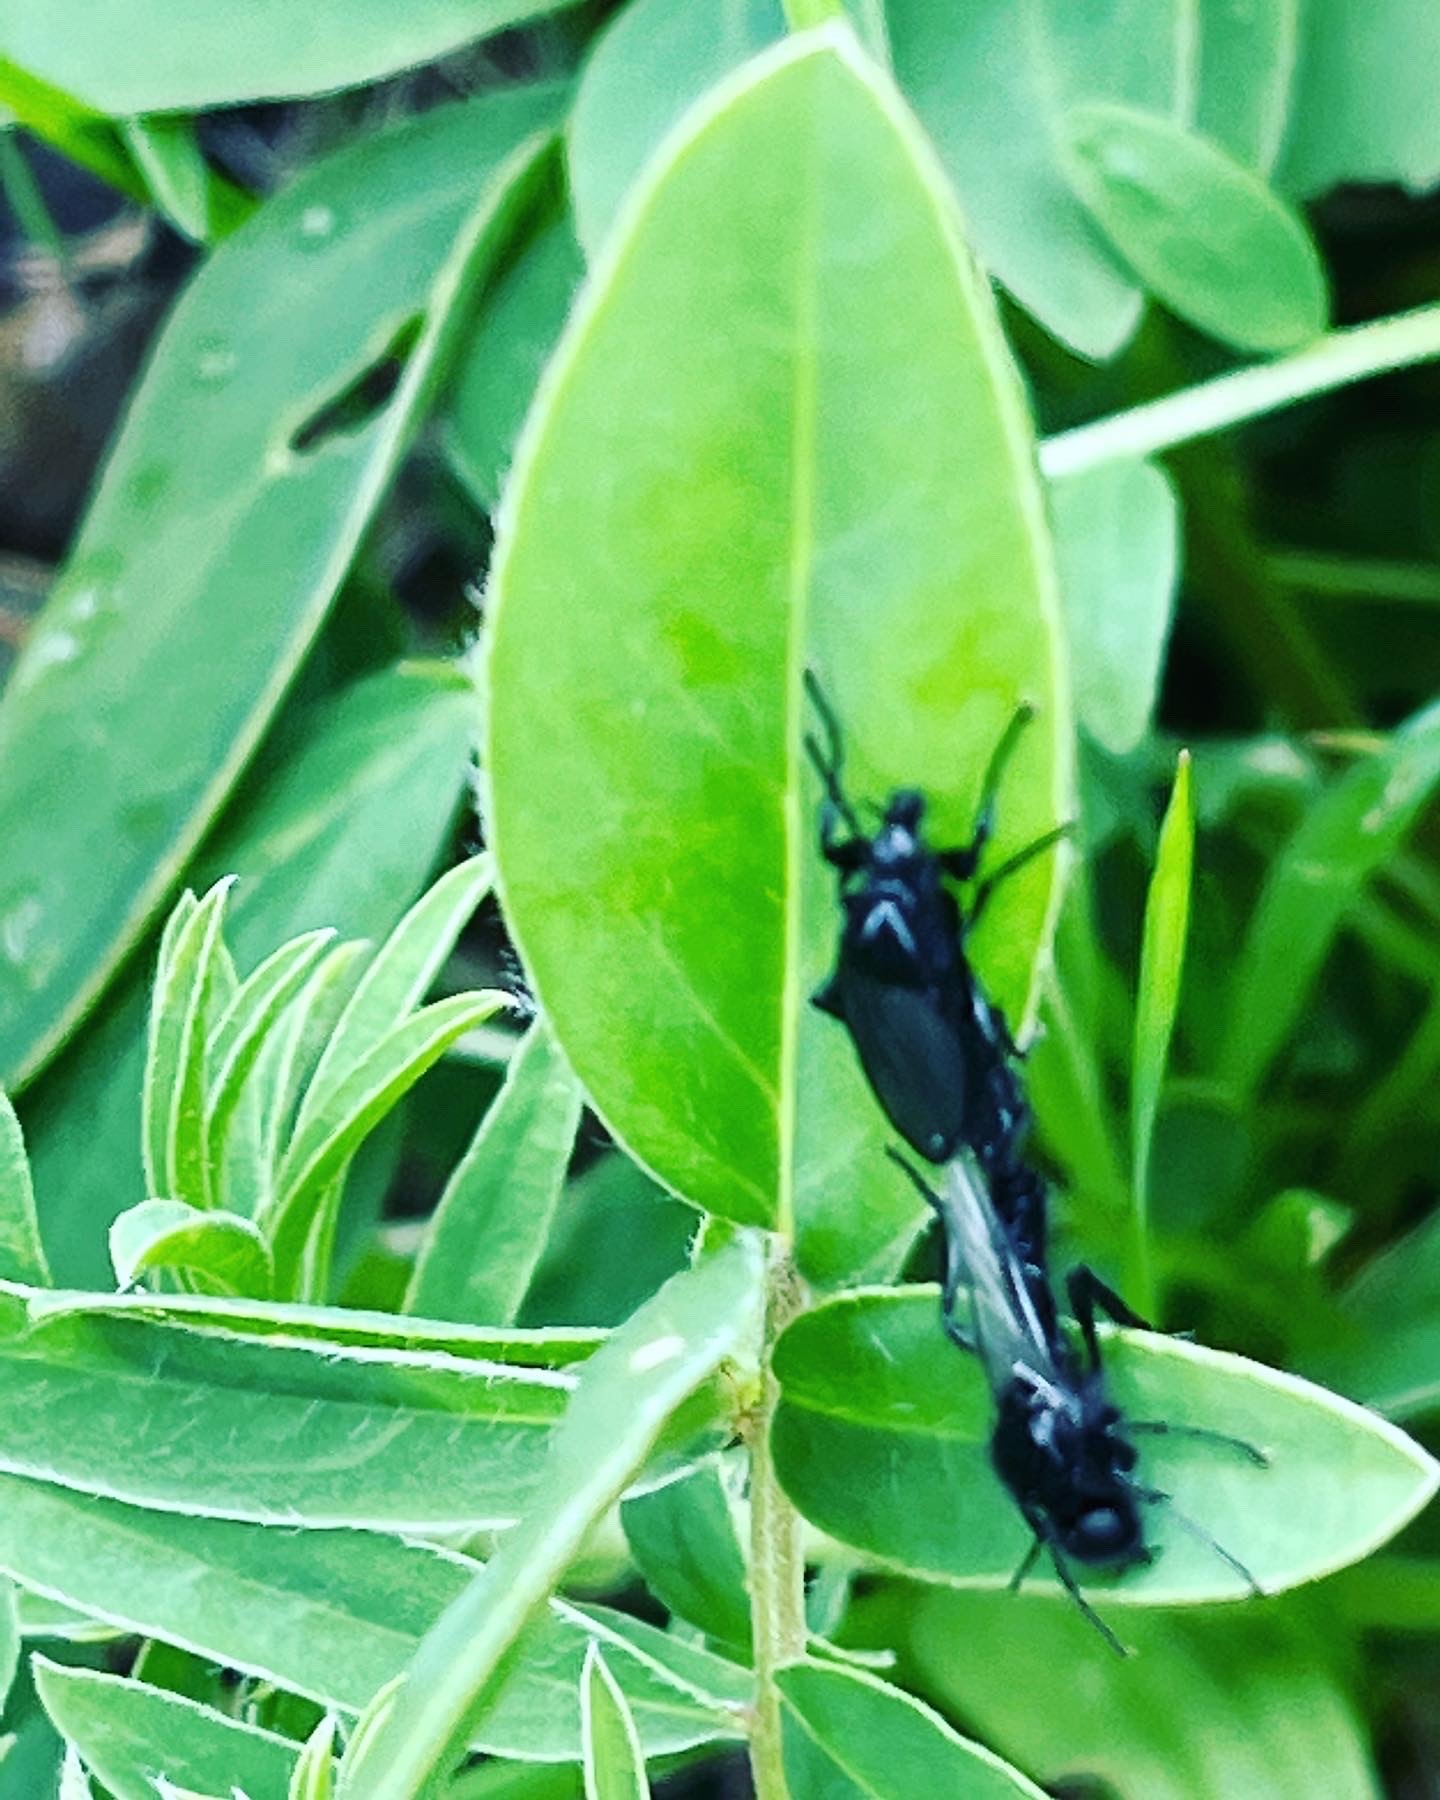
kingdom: Animalia
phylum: Arthropoda
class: Insecta
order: Diptera
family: Bibionidae
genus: Bibio
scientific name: Bibio marci
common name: St marks fly
